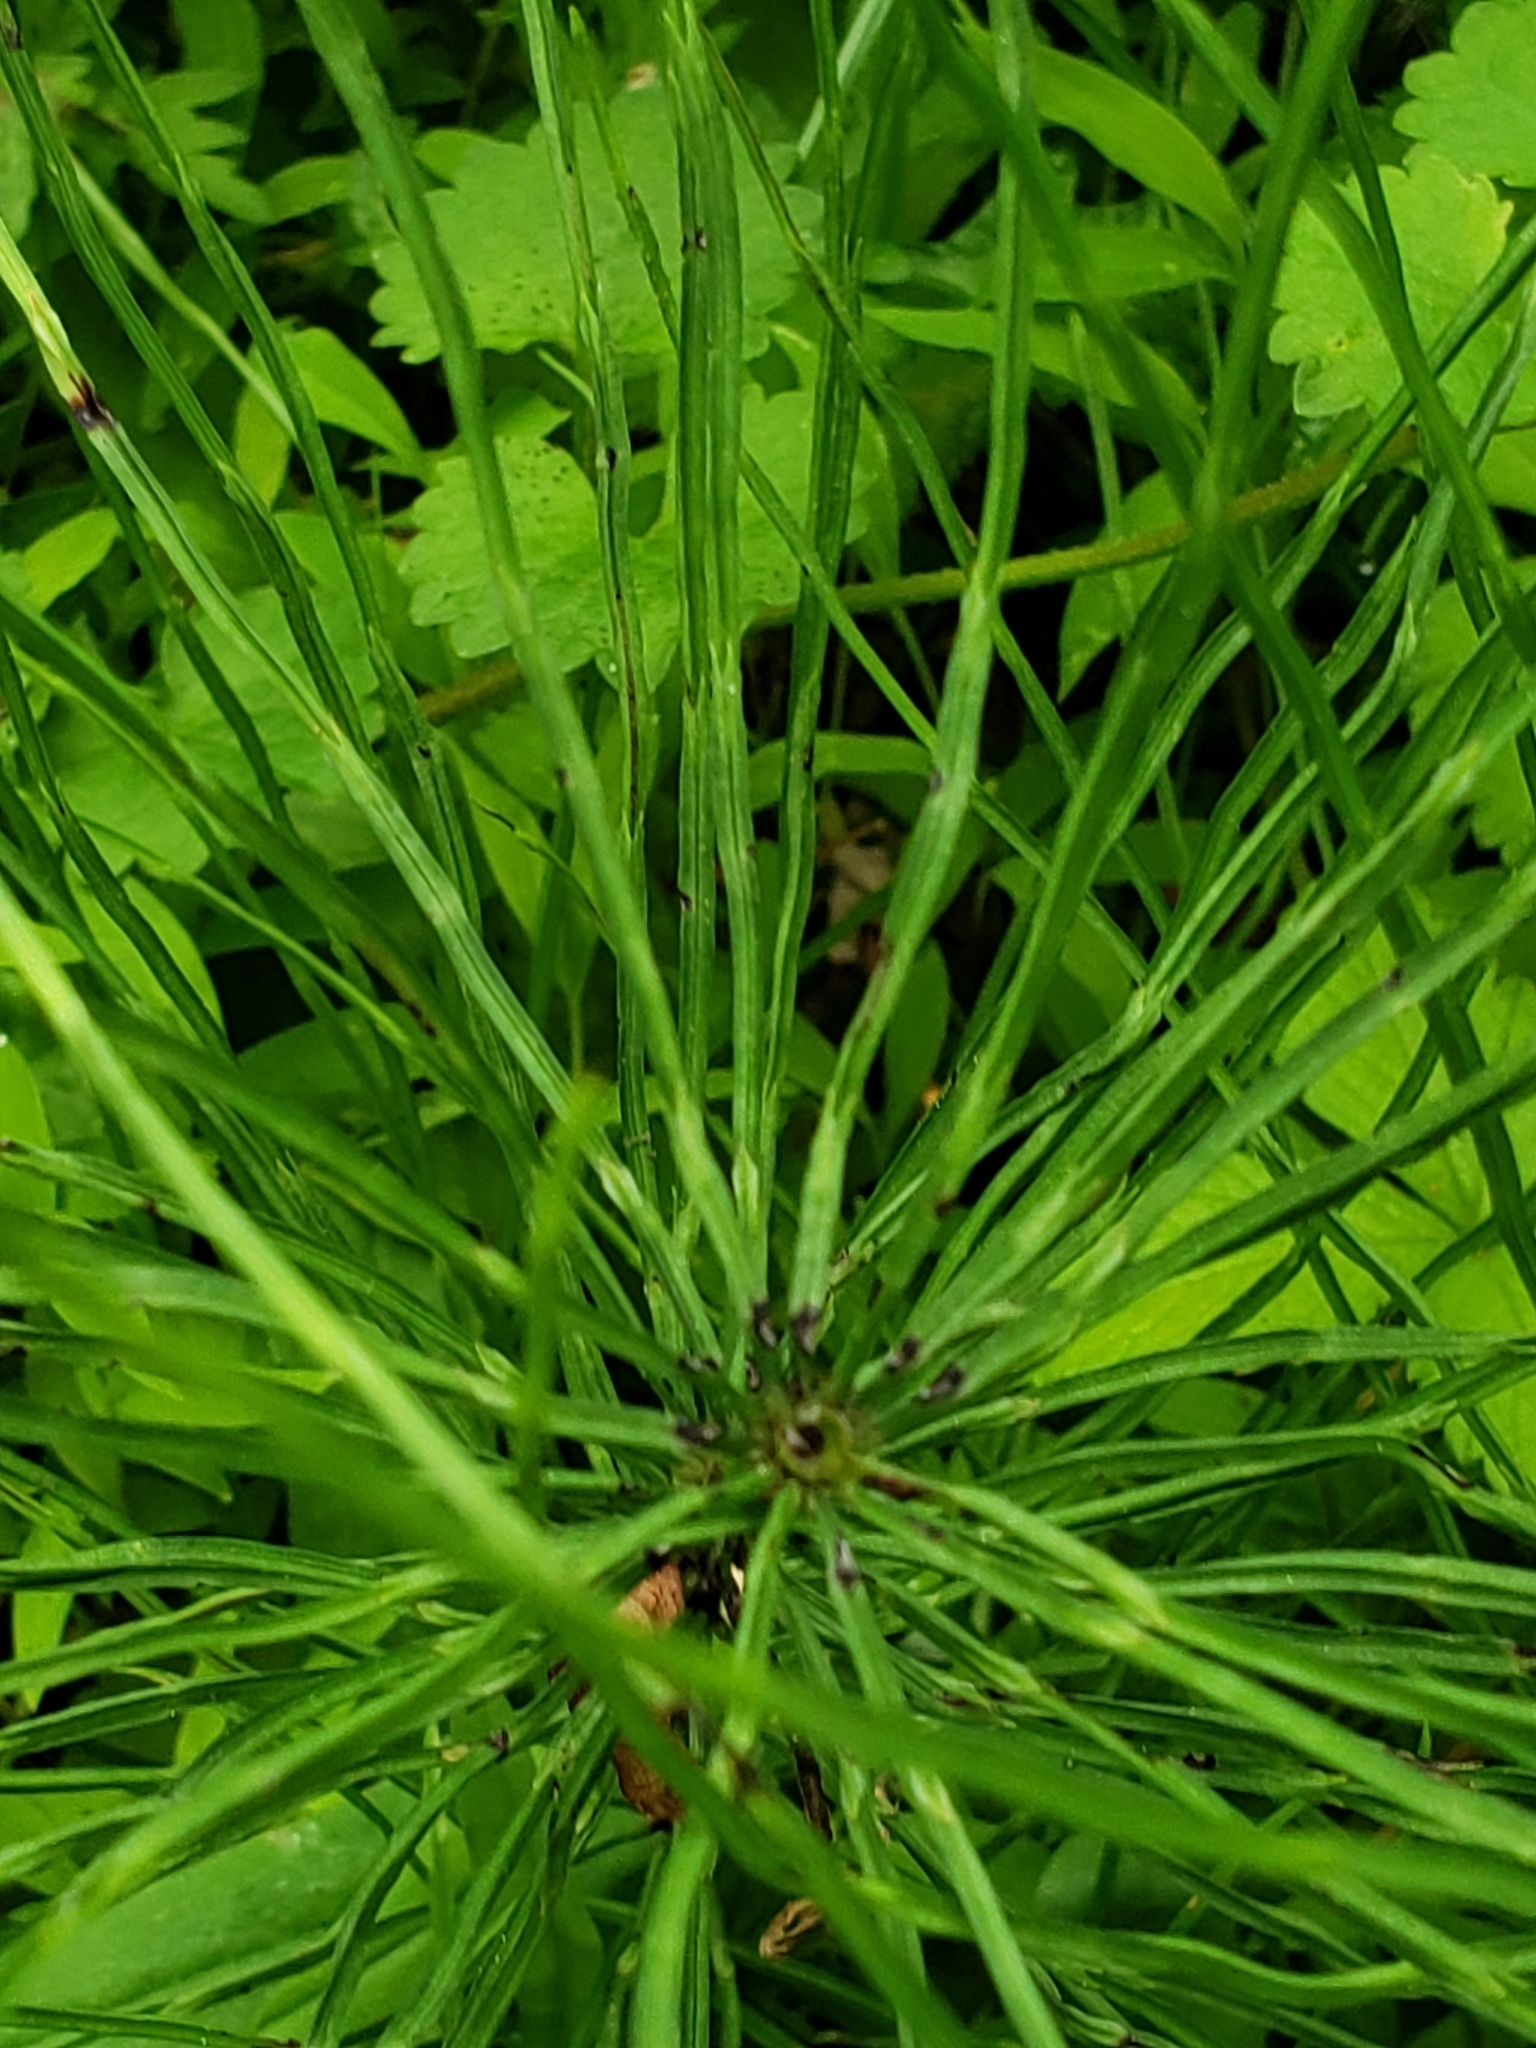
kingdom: Plantae
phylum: Tracheophyta
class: Polypodiopsida
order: Equisetales
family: Equisetaceae
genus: Equisetum
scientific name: Equisetum arvense
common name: Field horsetail
